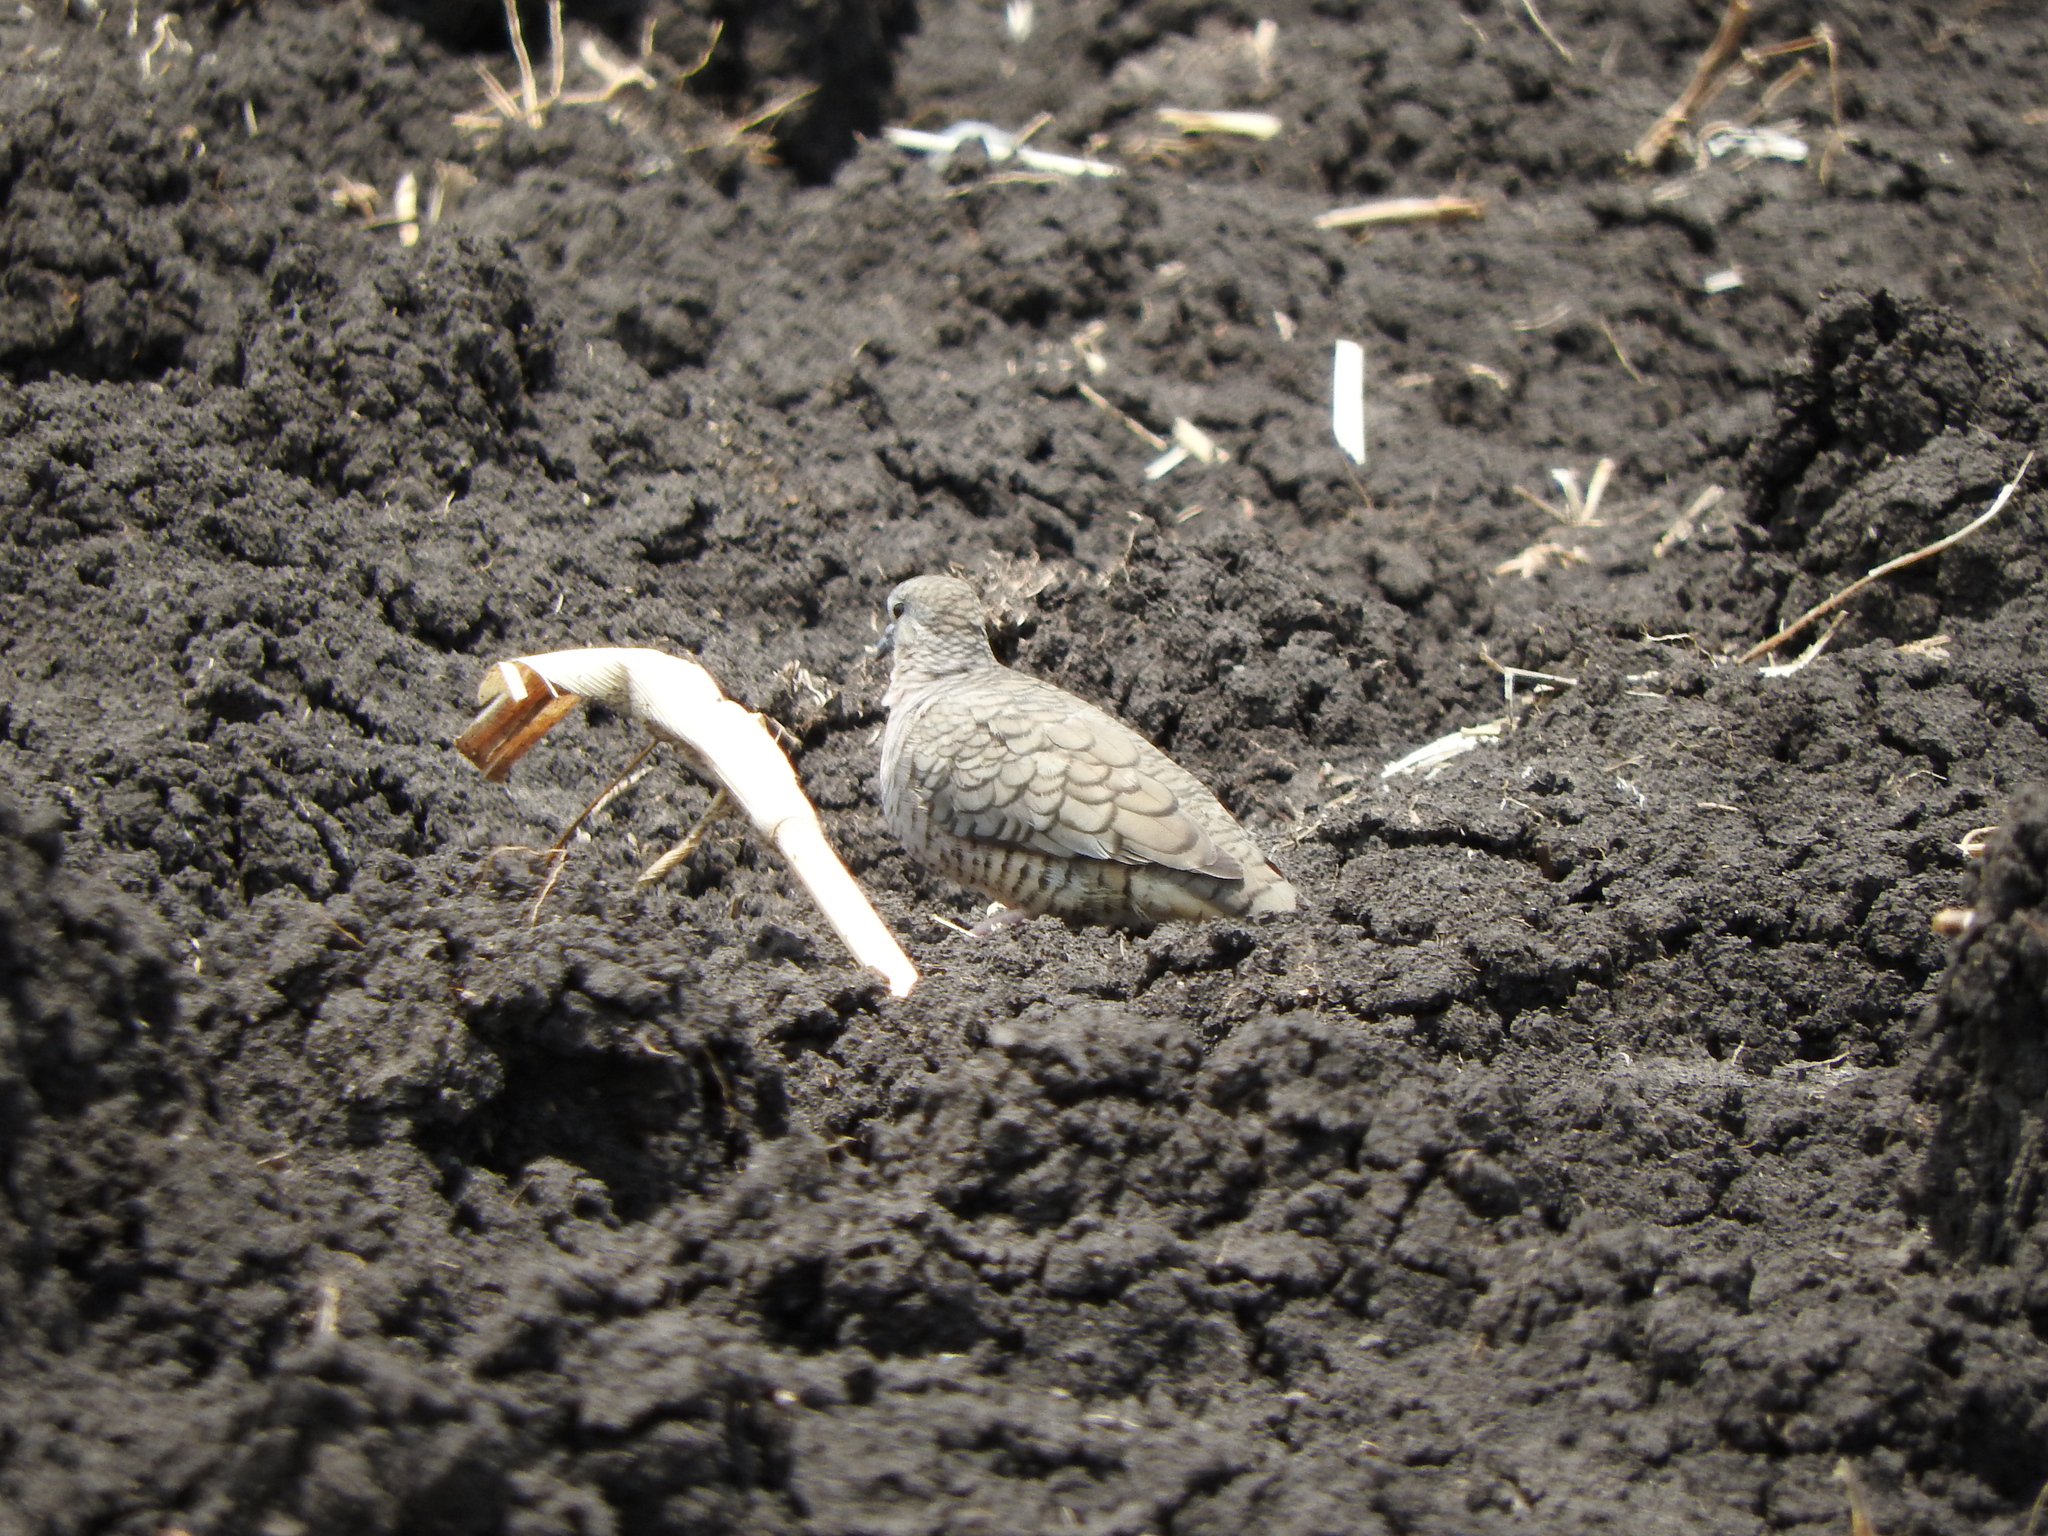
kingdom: Animalia
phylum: Chordata
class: Aves
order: Columbiformes
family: Columbidae
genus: Columbina
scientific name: Columbina inca
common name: Inca dove
